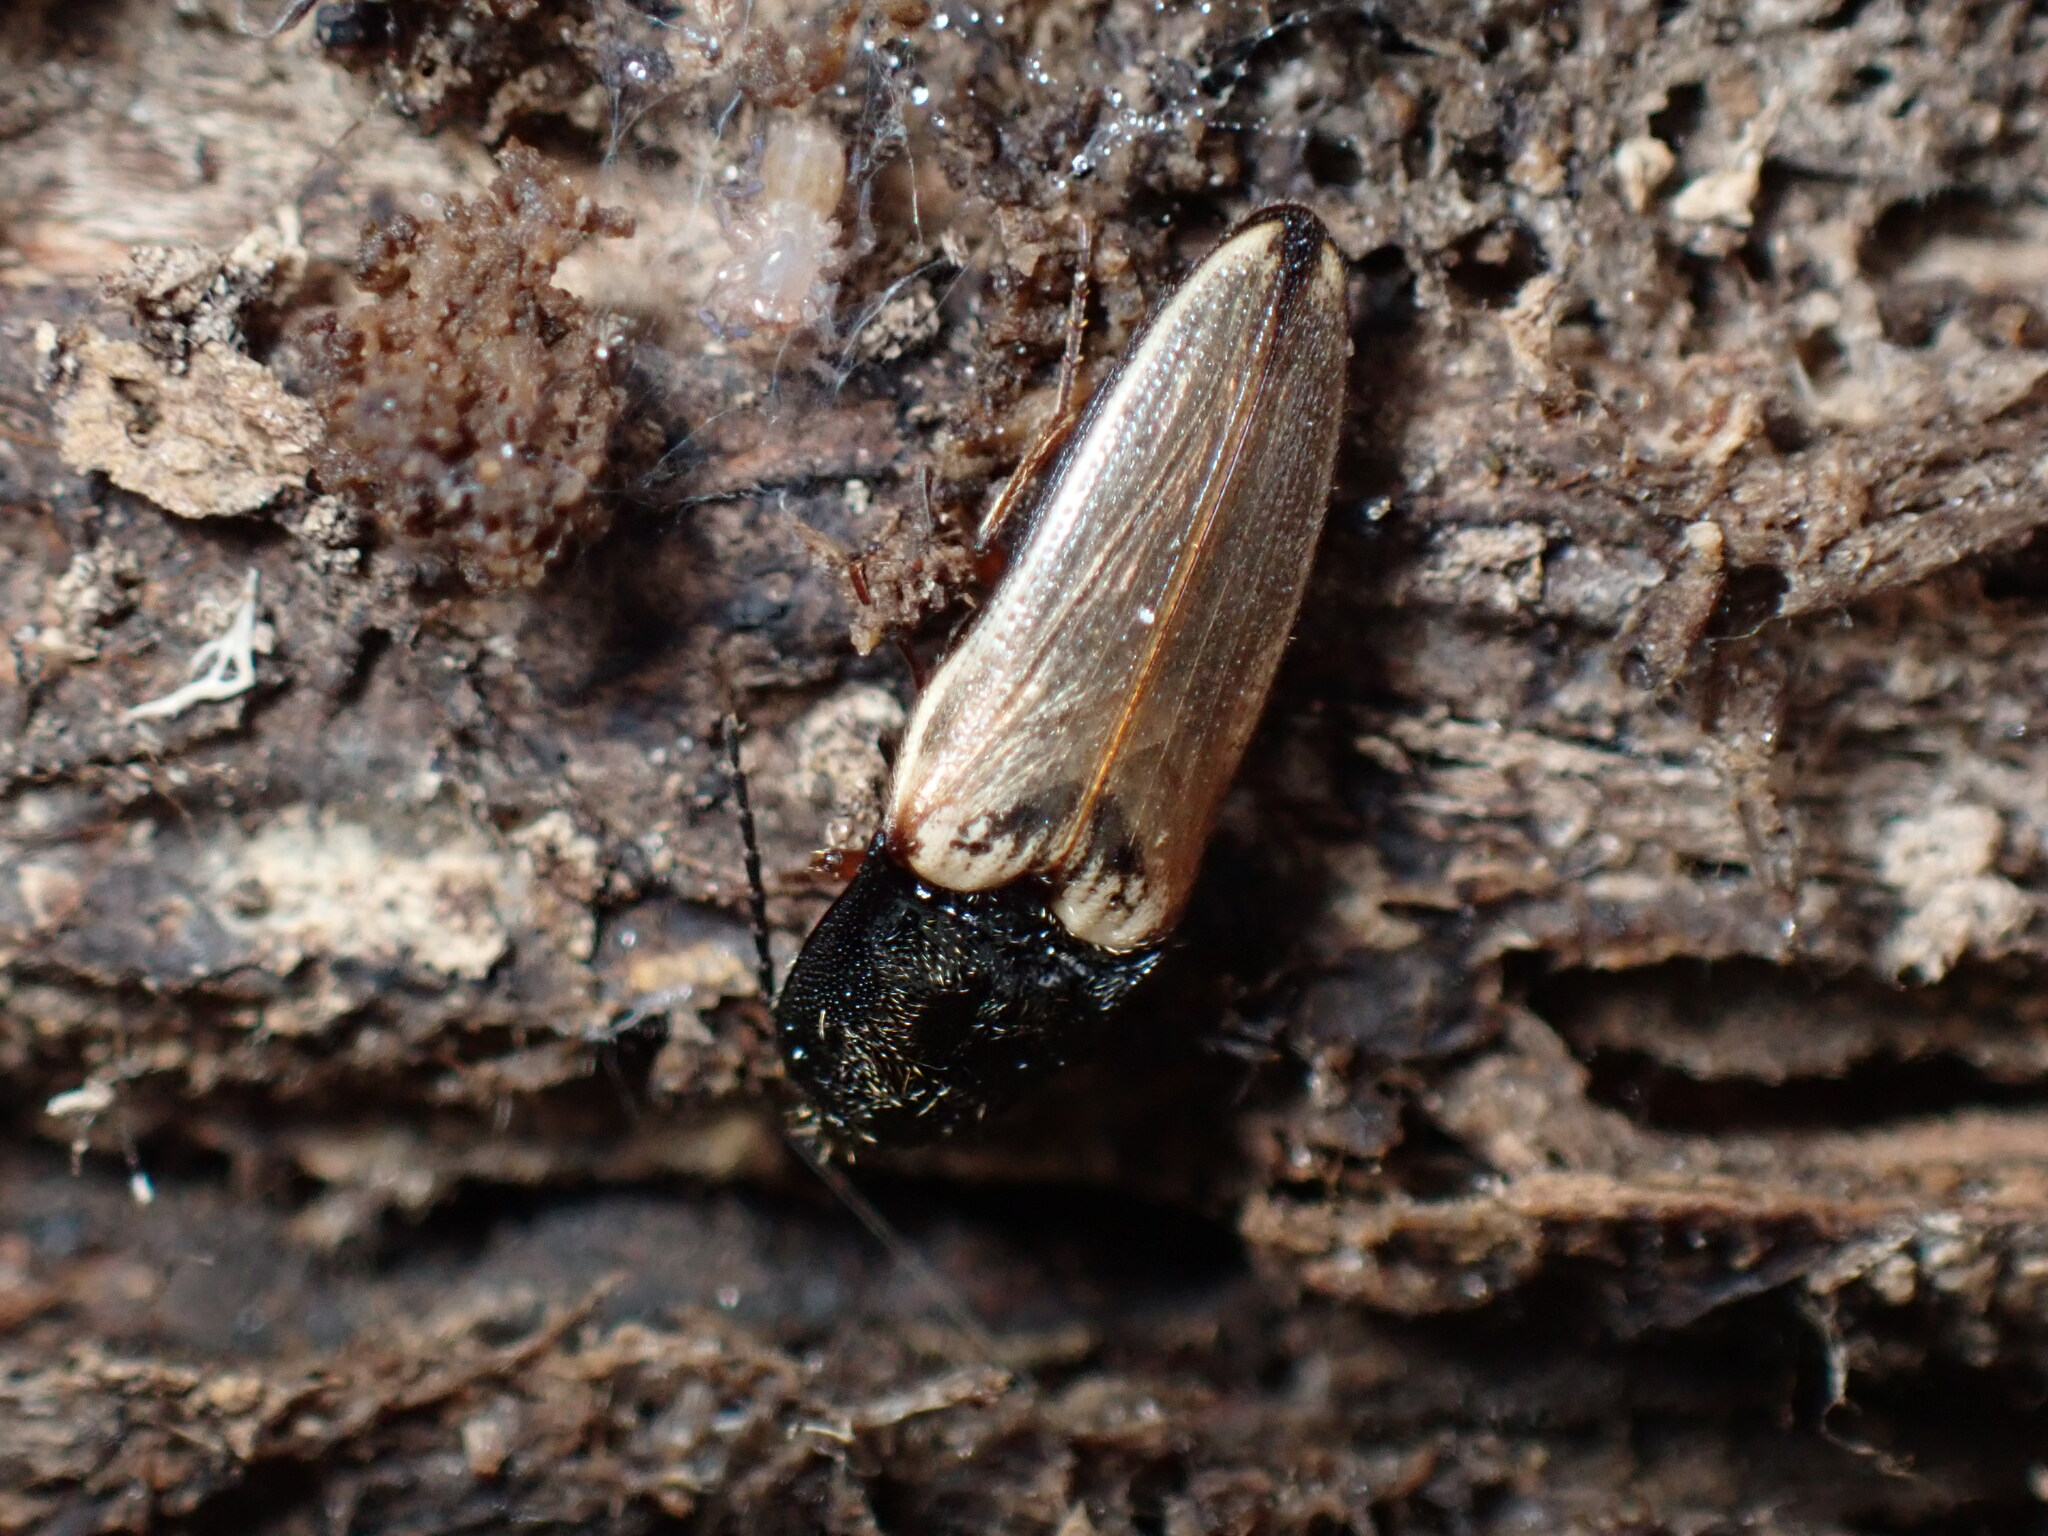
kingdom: Animalia
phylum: Arthropoda
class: Insecta
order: Coleoptera
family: Elateridae
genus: Ampedus
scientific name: Ampedus nigricollis
